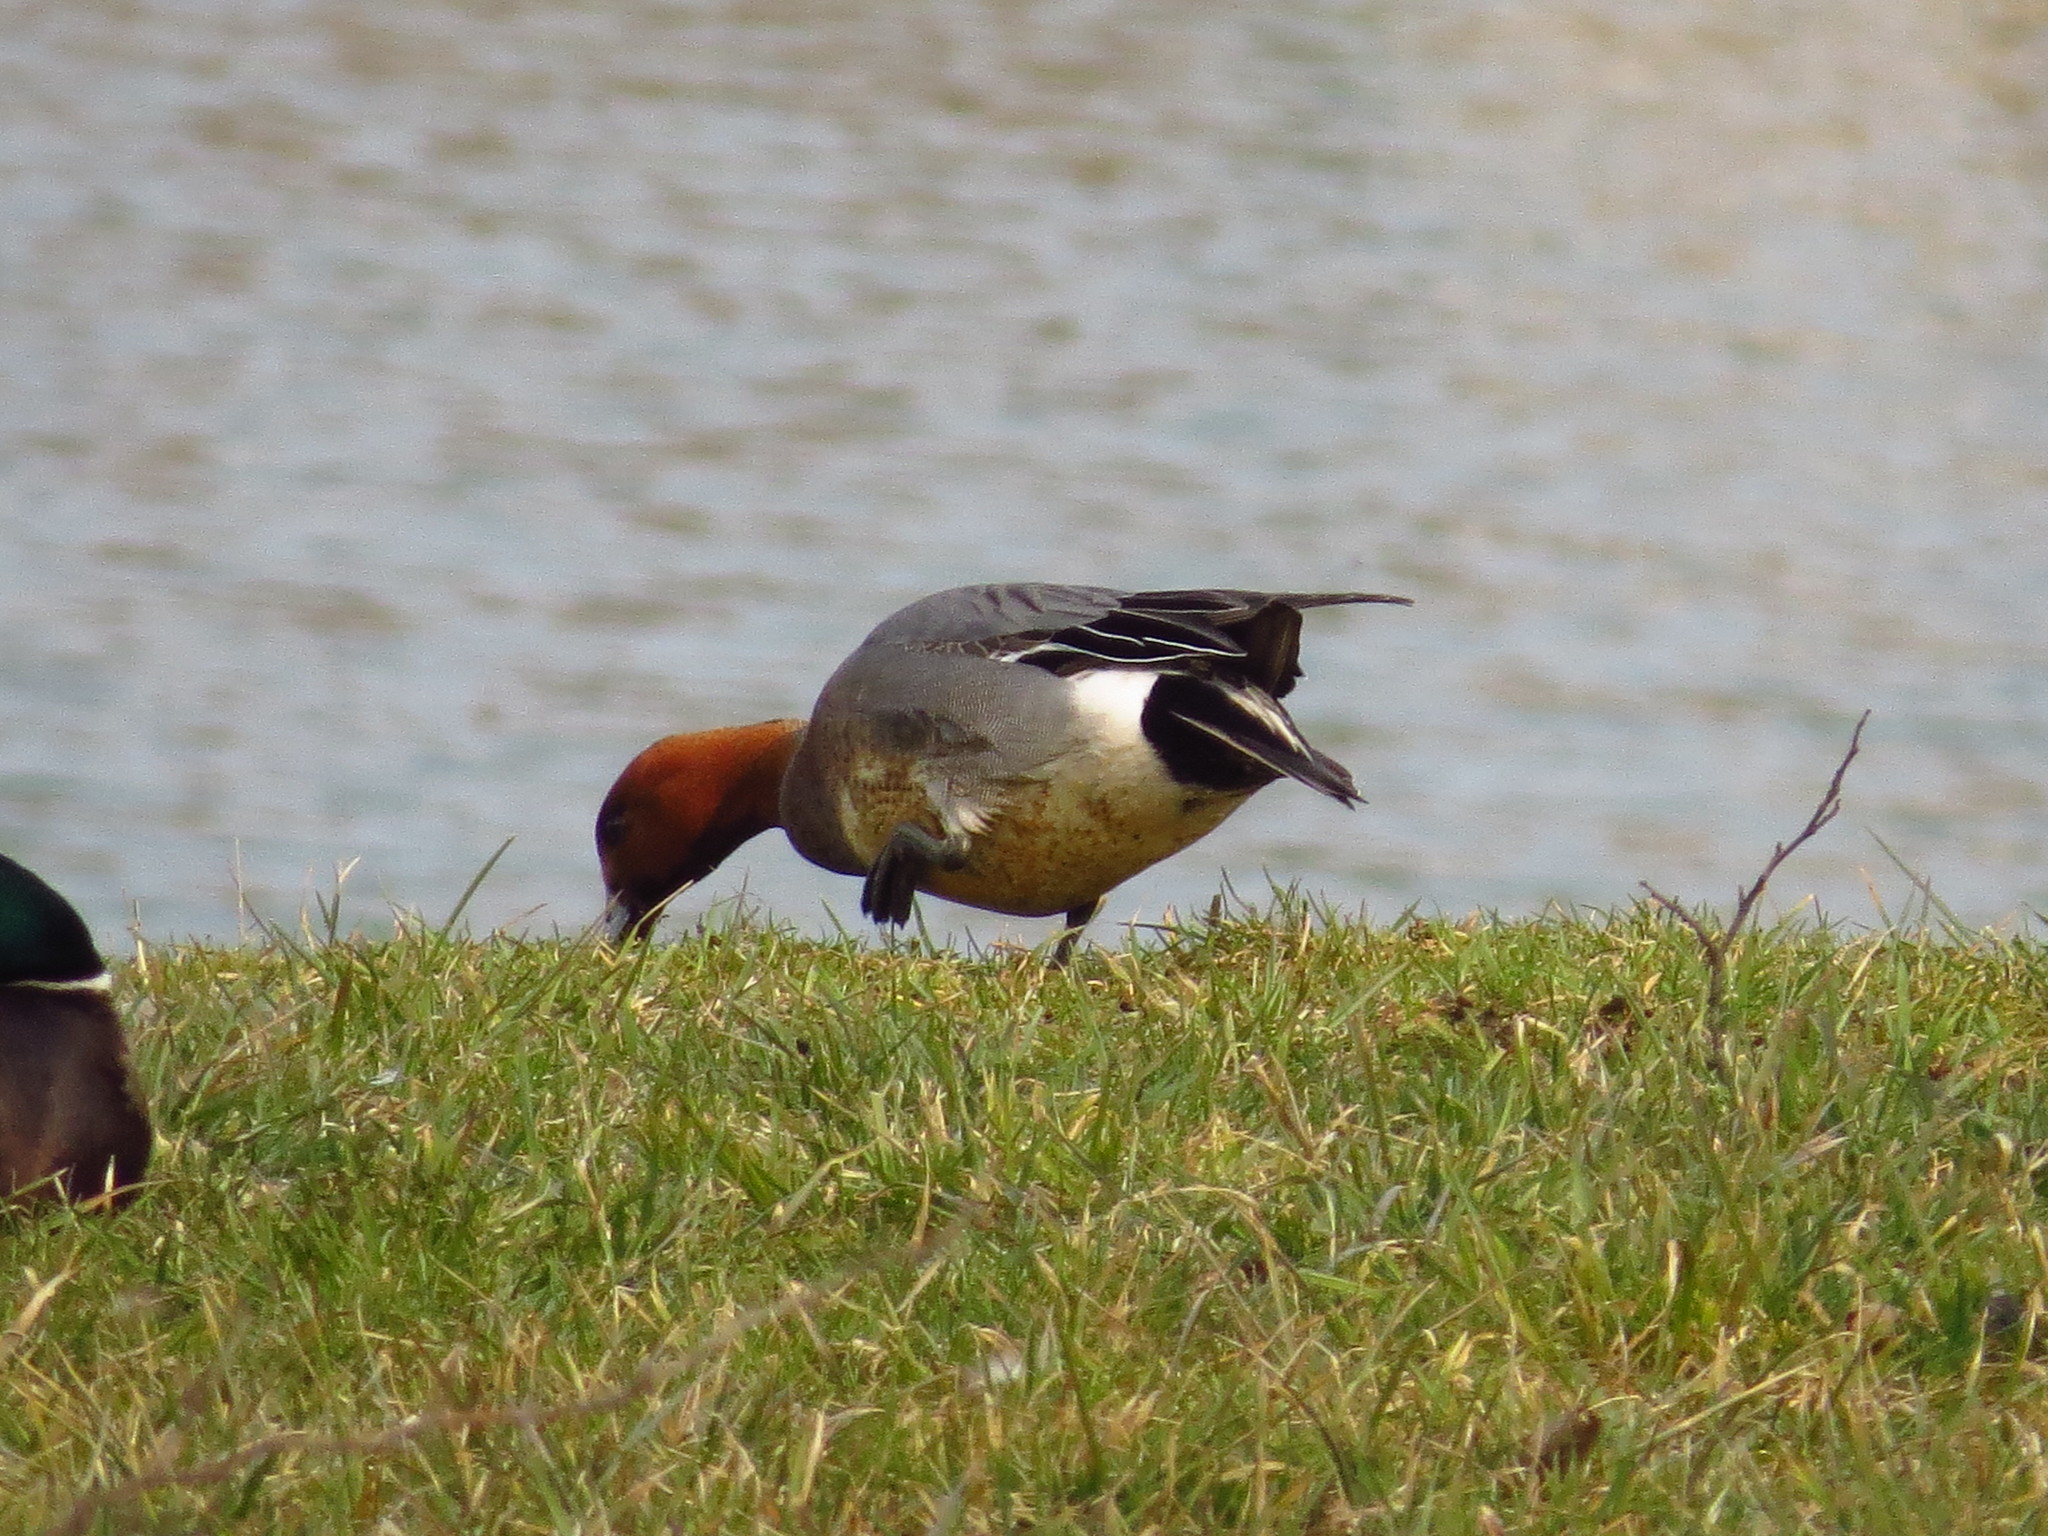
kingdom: Animalia
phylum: Chordata
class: Aves
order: Anseriformes
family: Anatidae
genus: Mareca
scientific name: Mareca penelope
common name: Eurasian wigeon
